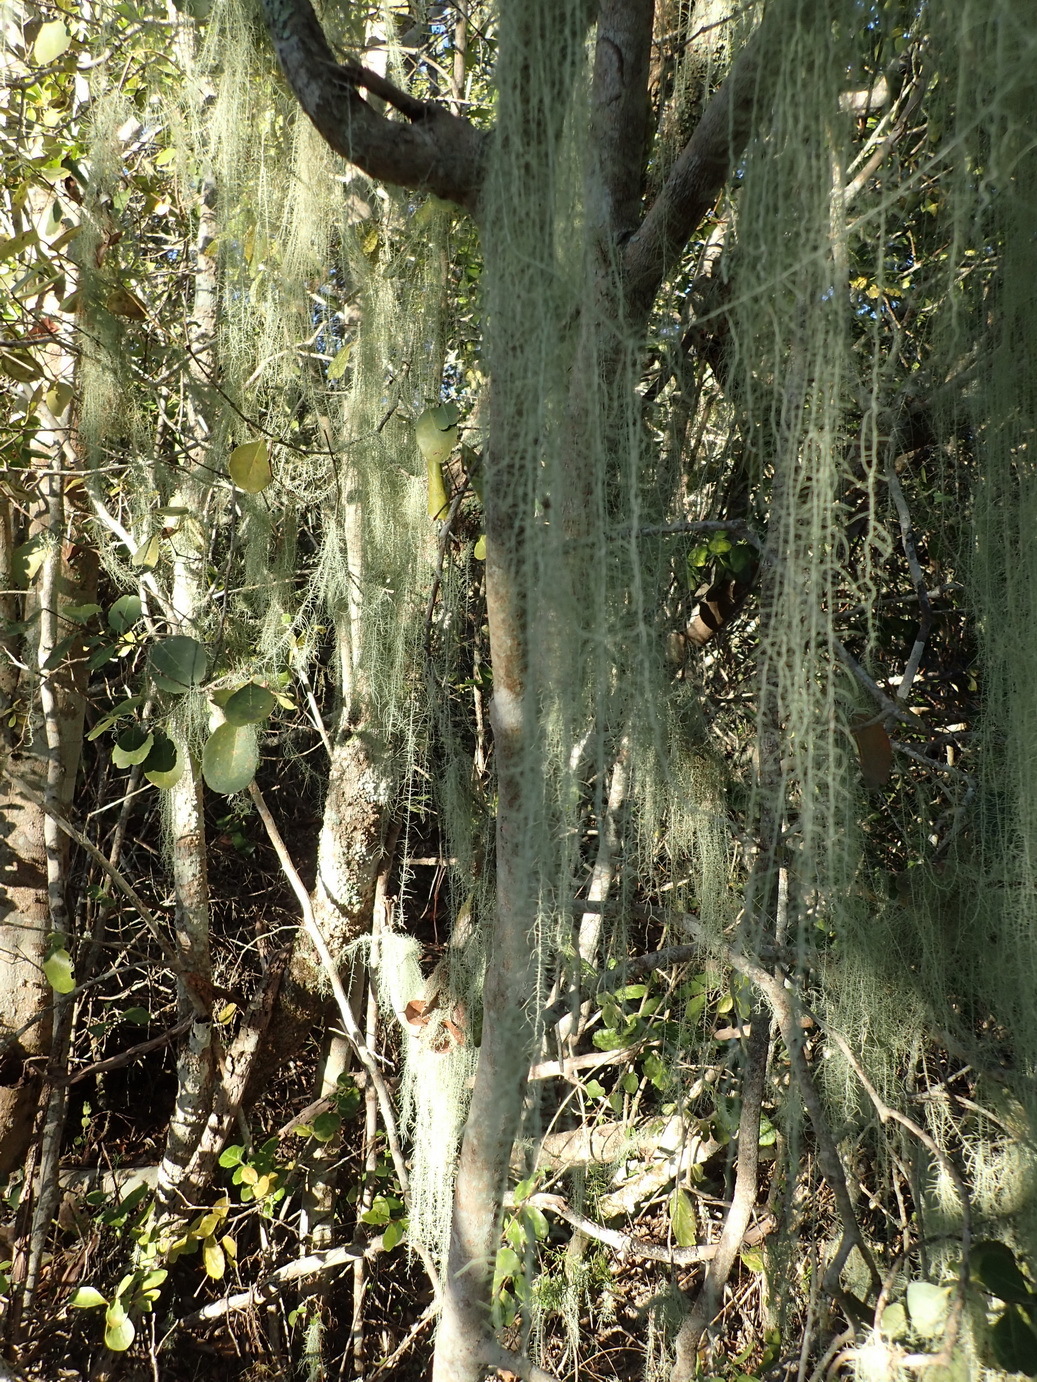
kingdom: Fungi
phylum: Ascomycota
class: Lecanoromycetes
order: Lecanorales
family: Parmeliaceae
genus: Dolichousnea
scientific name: Dolichousnea trichodeoides
